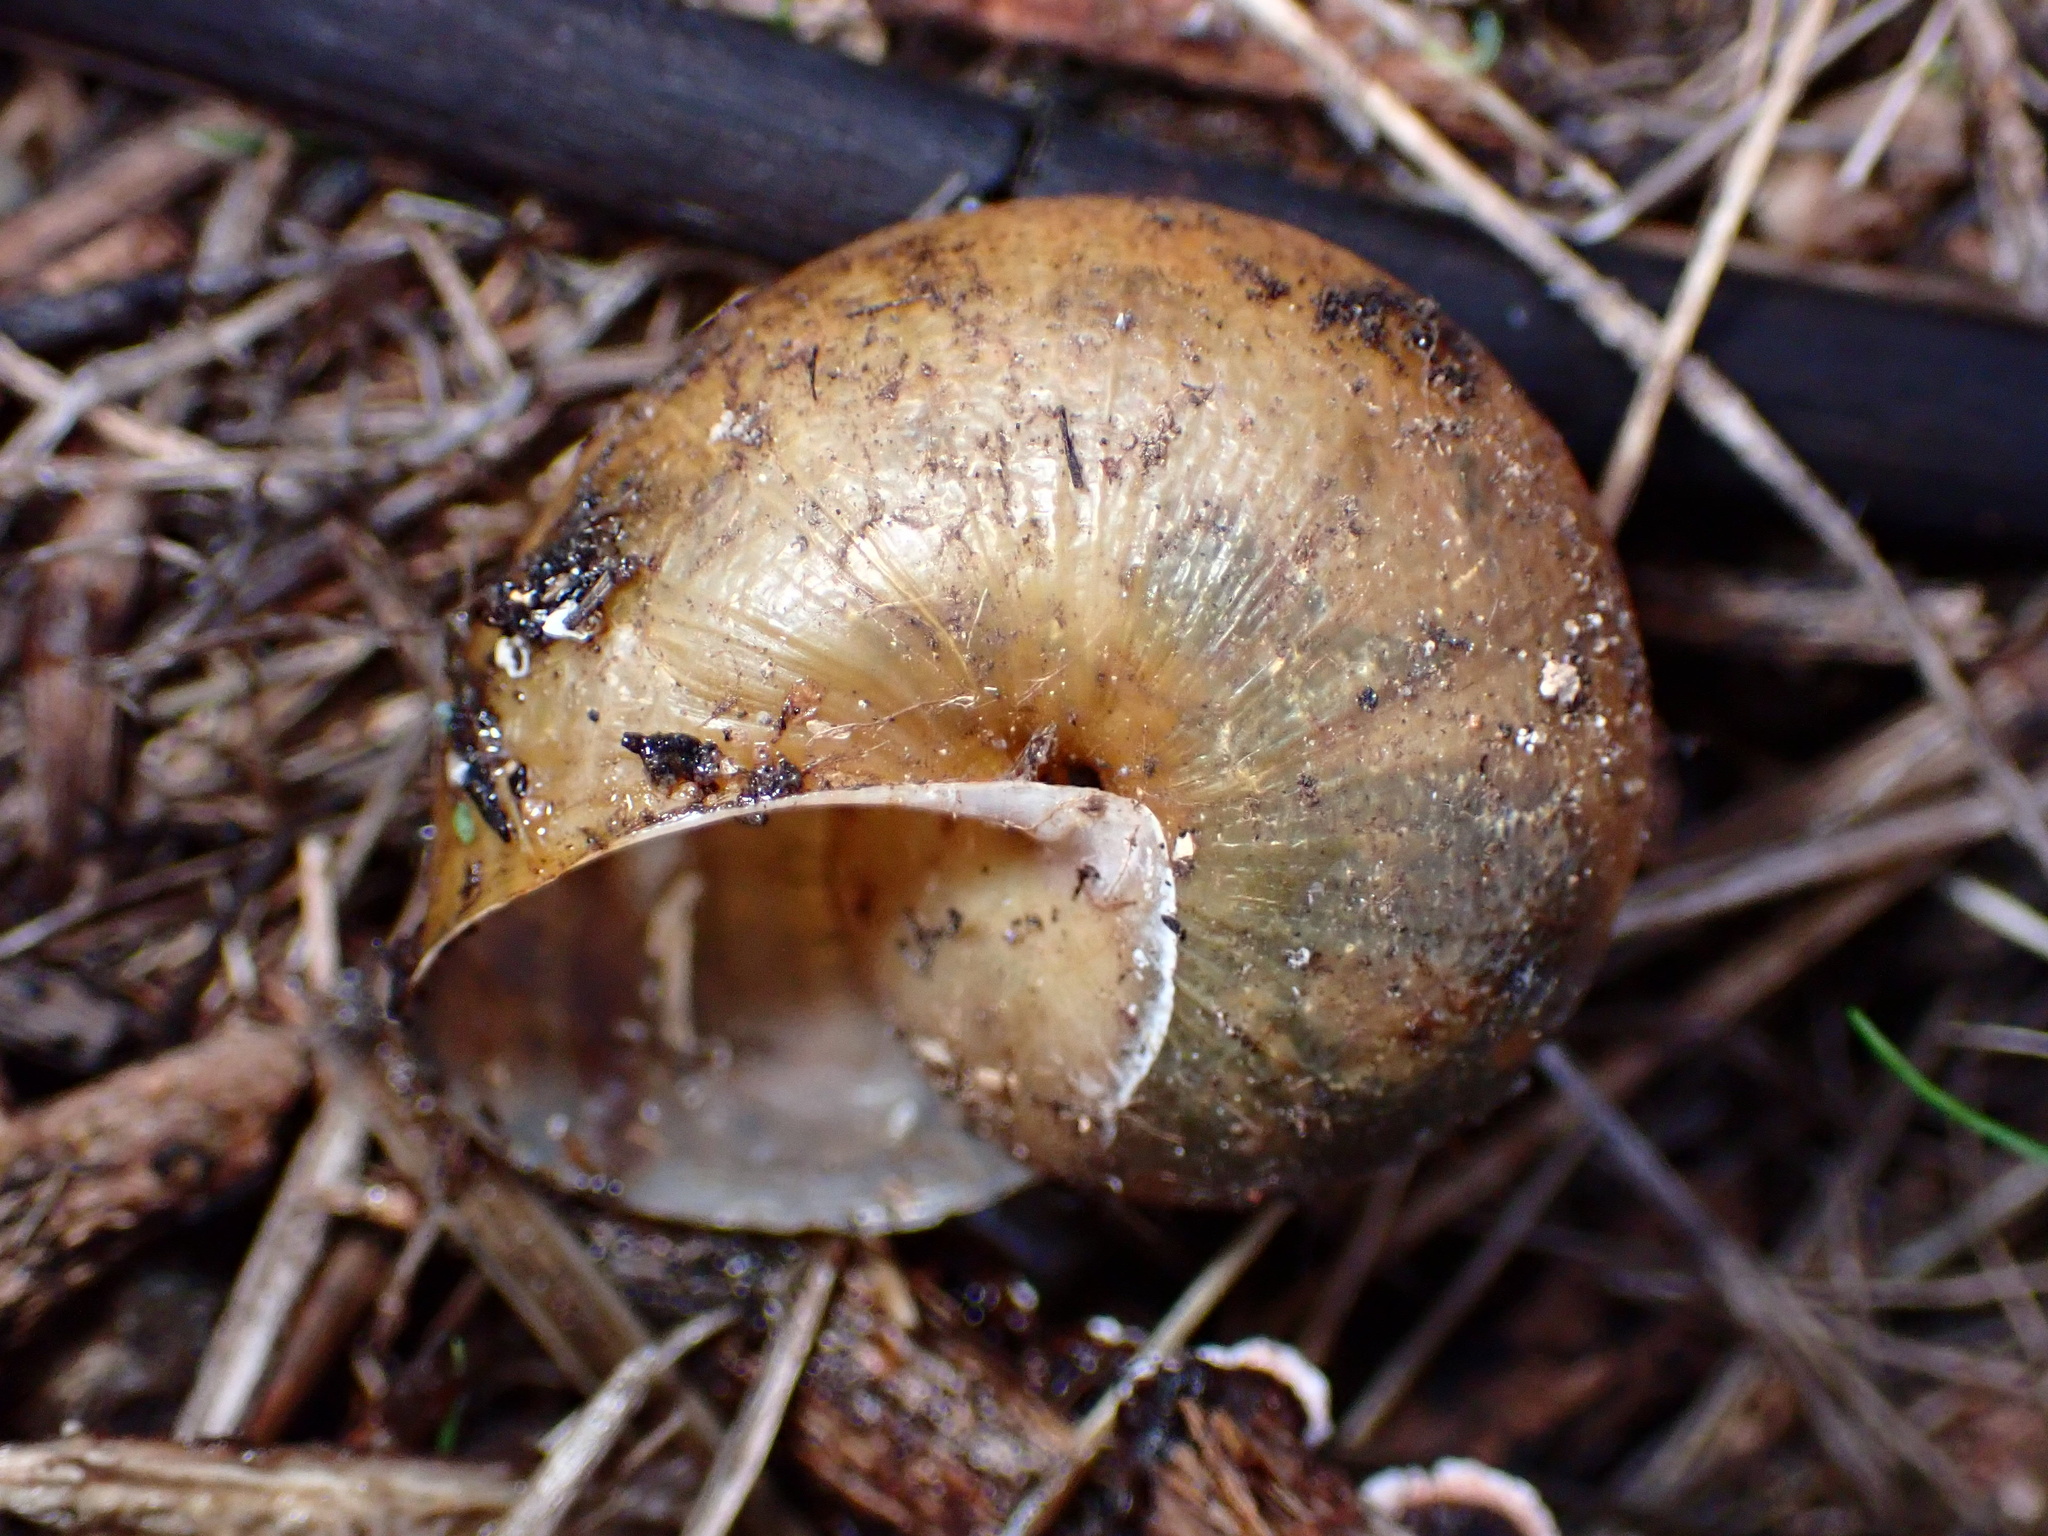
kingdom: Animalia
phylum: Mollusca
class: Gastropoda
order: Stylommatophora
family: Xanthonychidae
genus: Helminthoglypta
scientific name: Helminthoglypta tudiculata
